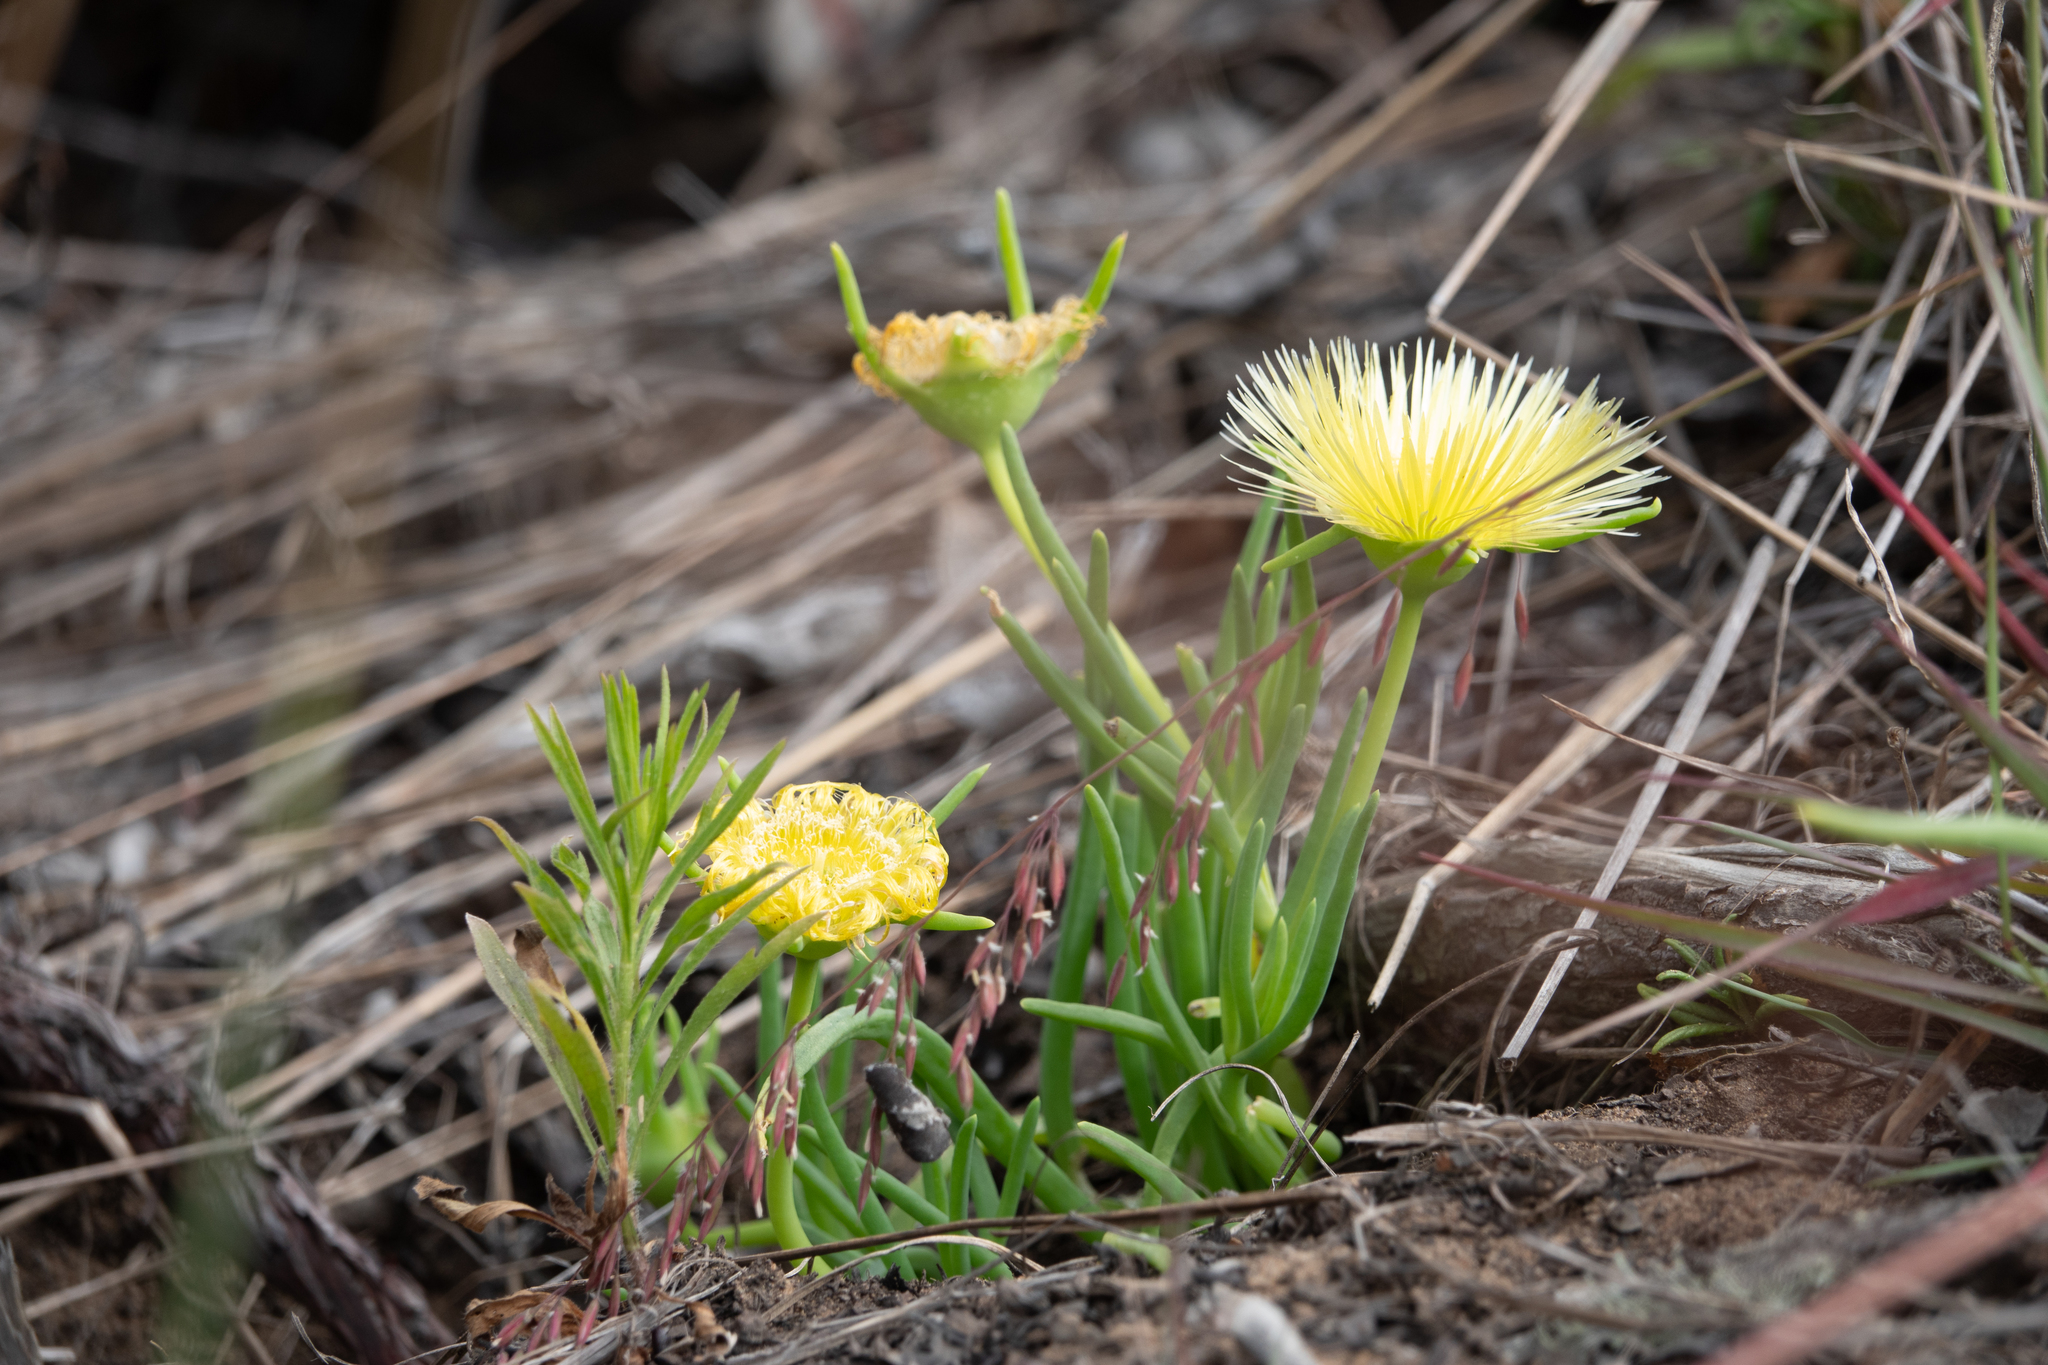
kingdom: Plantae
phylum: Tracheophyta
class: Magnoliopsida
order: Caryophyllales
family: Aizoaceae
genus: Conicosia
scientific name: Conicosia pugioniformis
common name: Narrow-leaved iceplant
